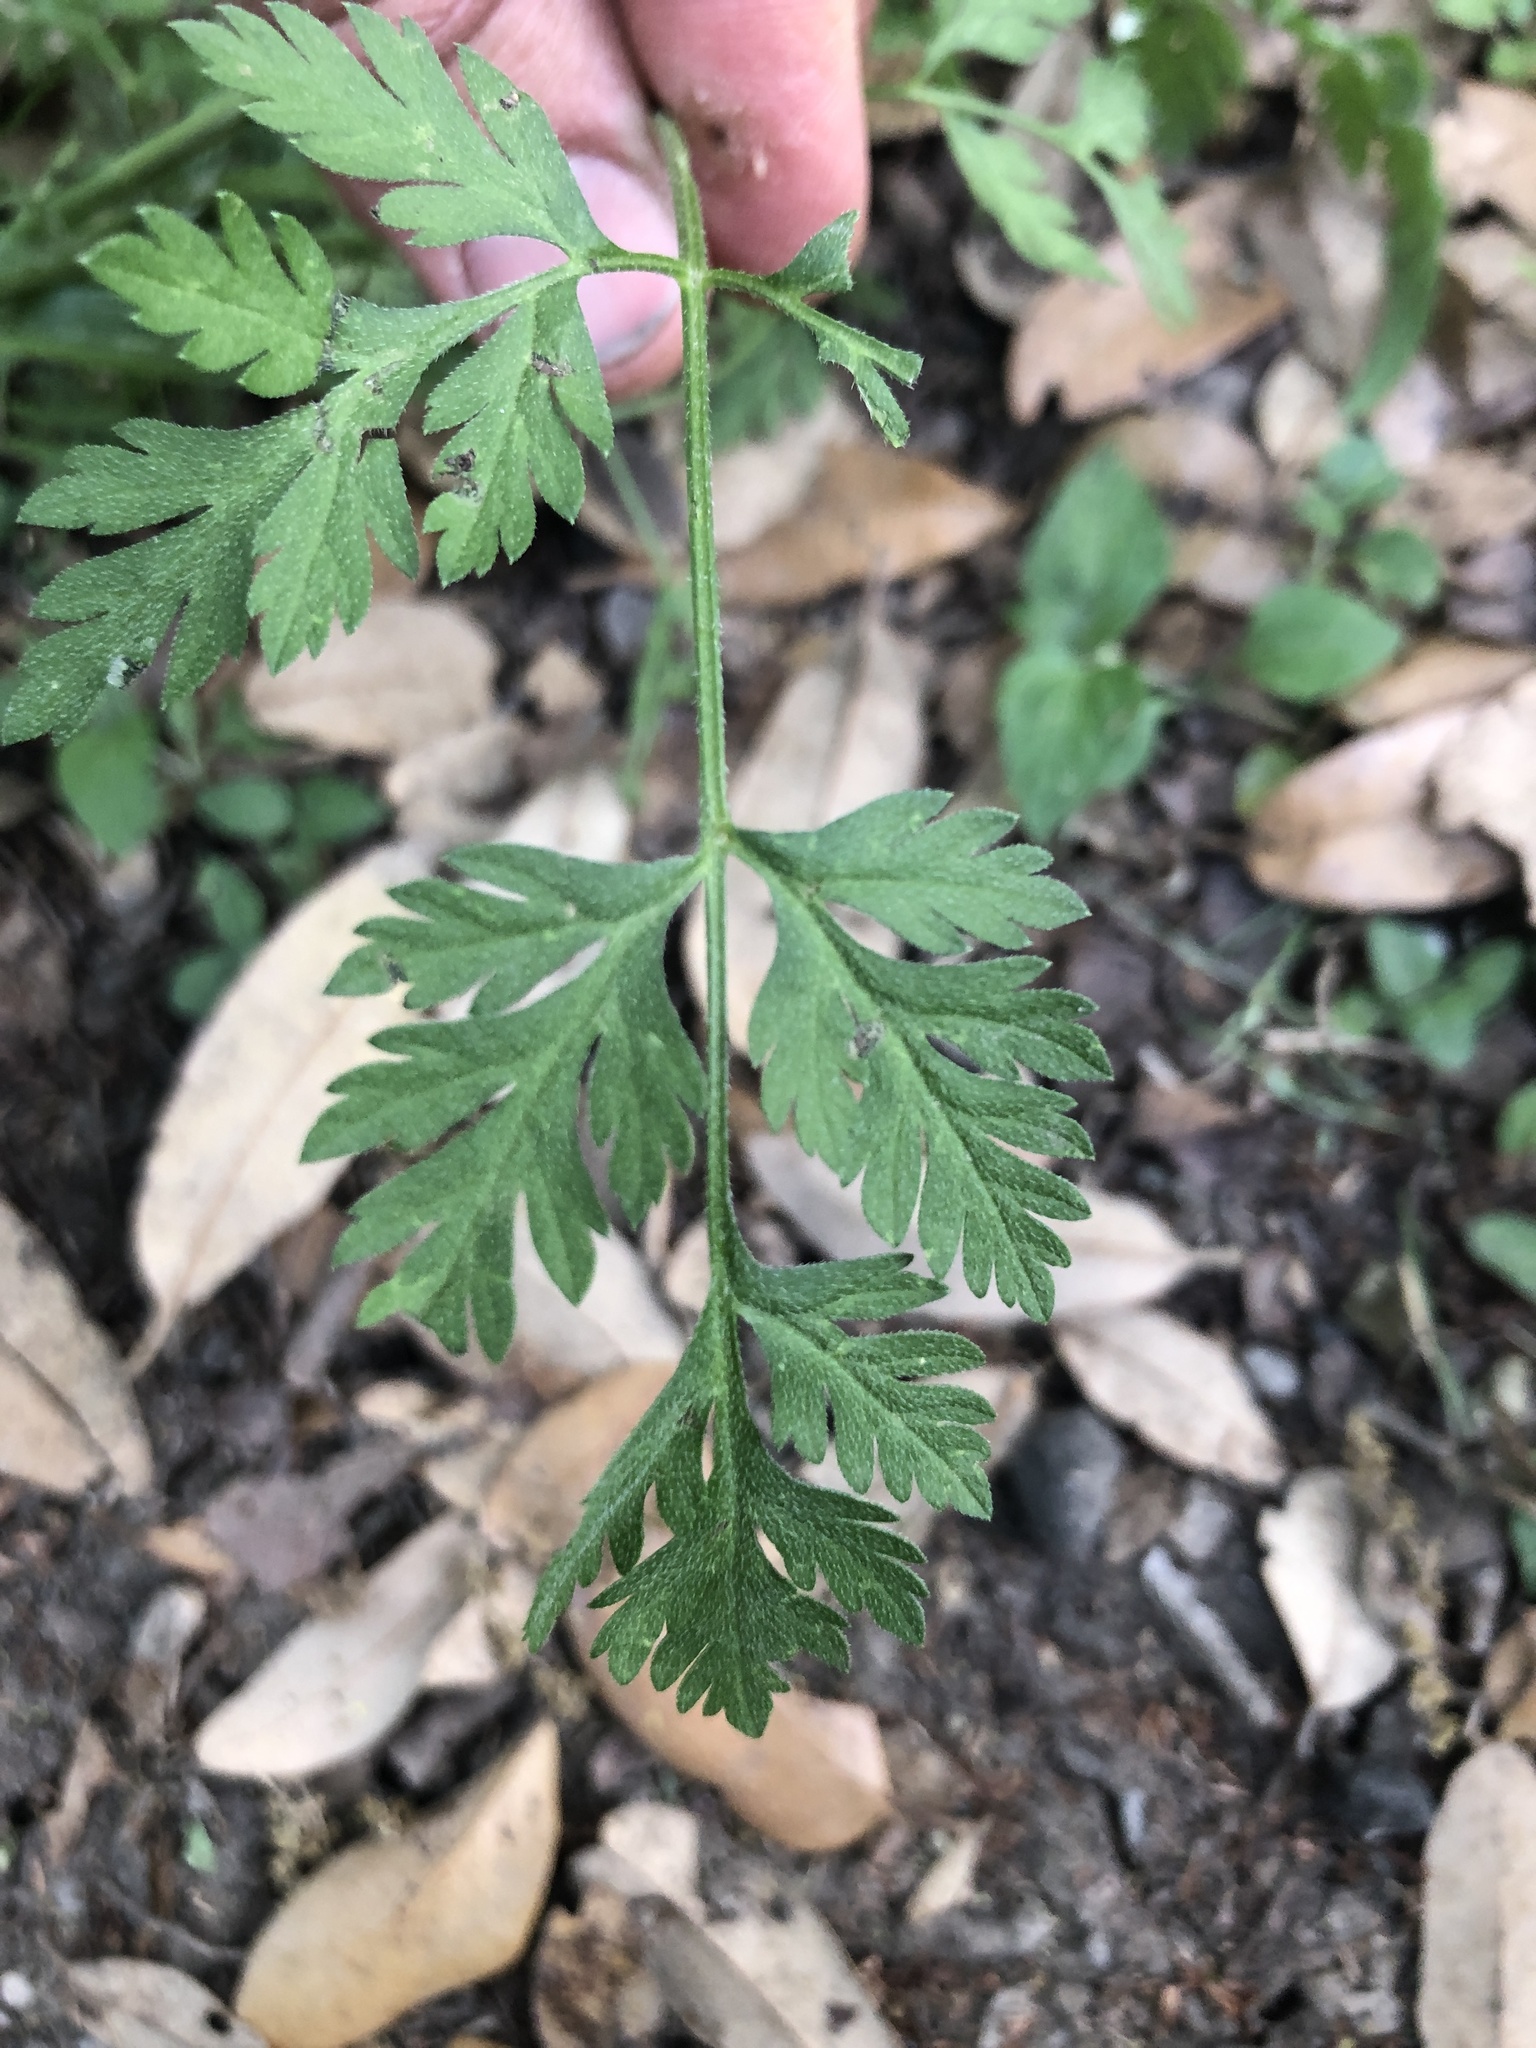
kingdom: Plantae
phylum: Tracheophyta
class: Magnoliopsida
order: Apiales
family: Apiaceae
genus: Torilis
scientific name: Torilis arvensis
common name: Spreading hedge-parsley
